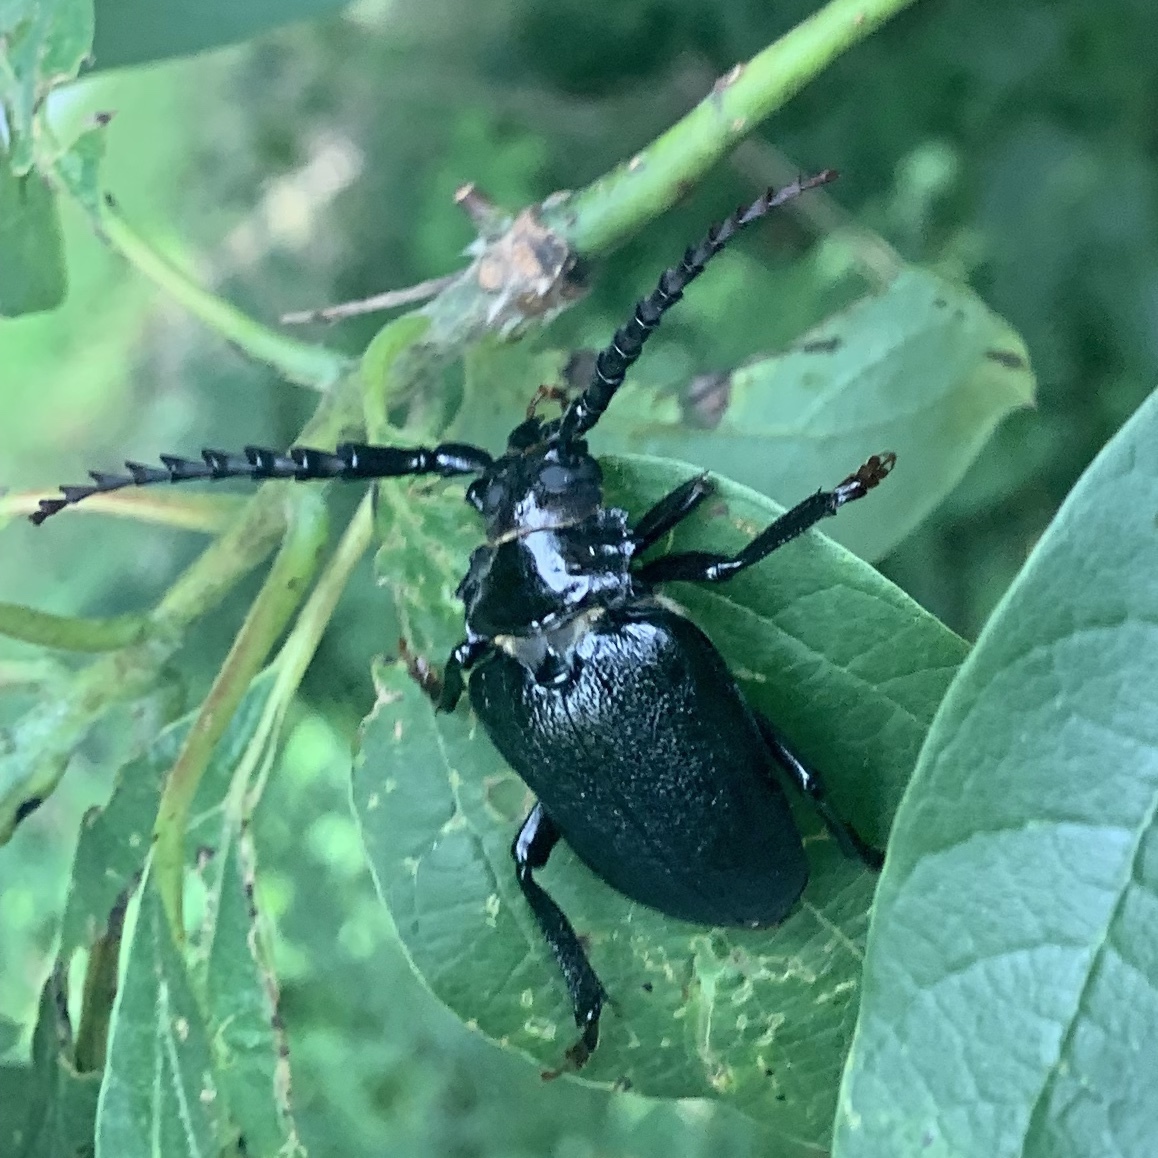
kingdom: Animalia
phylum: Arthropoda
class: Insecta
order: Coleoptera
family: Cerambycidae
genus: Prionus
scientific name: Prionus laticollis
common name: Broad necked prionus
